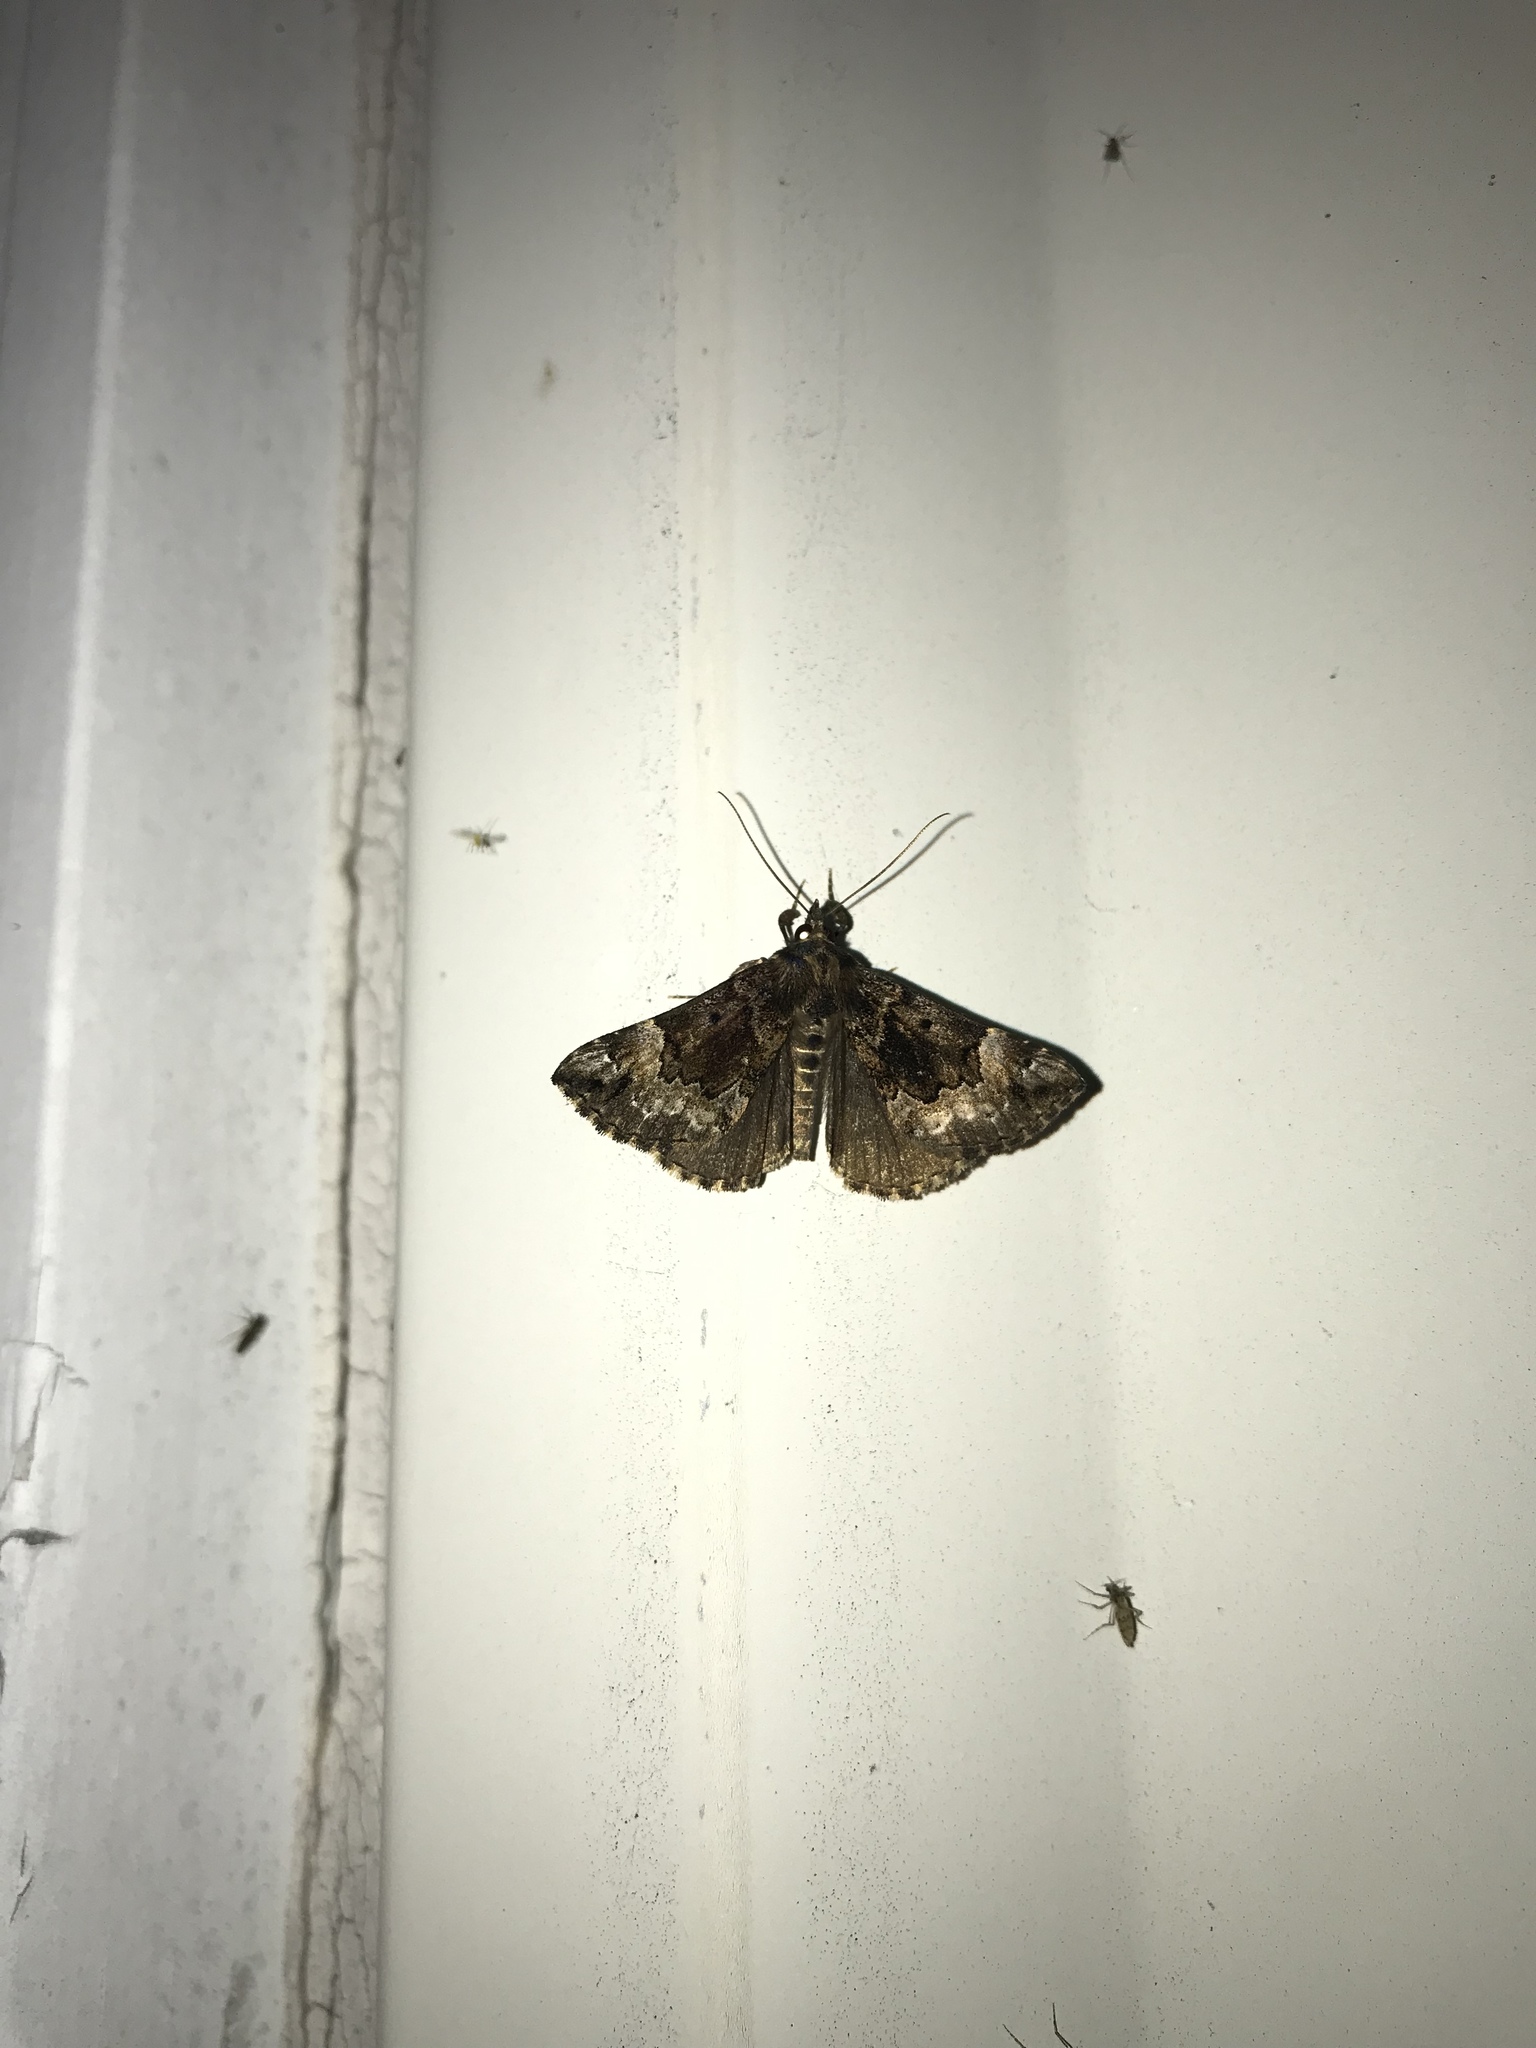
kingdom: Animalia
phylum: Arthropoda
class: Insecta
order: Lepidoptera
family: Erebidae
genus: Hypena
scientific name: Hypena palparia
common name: Mottled bomolocha moth
